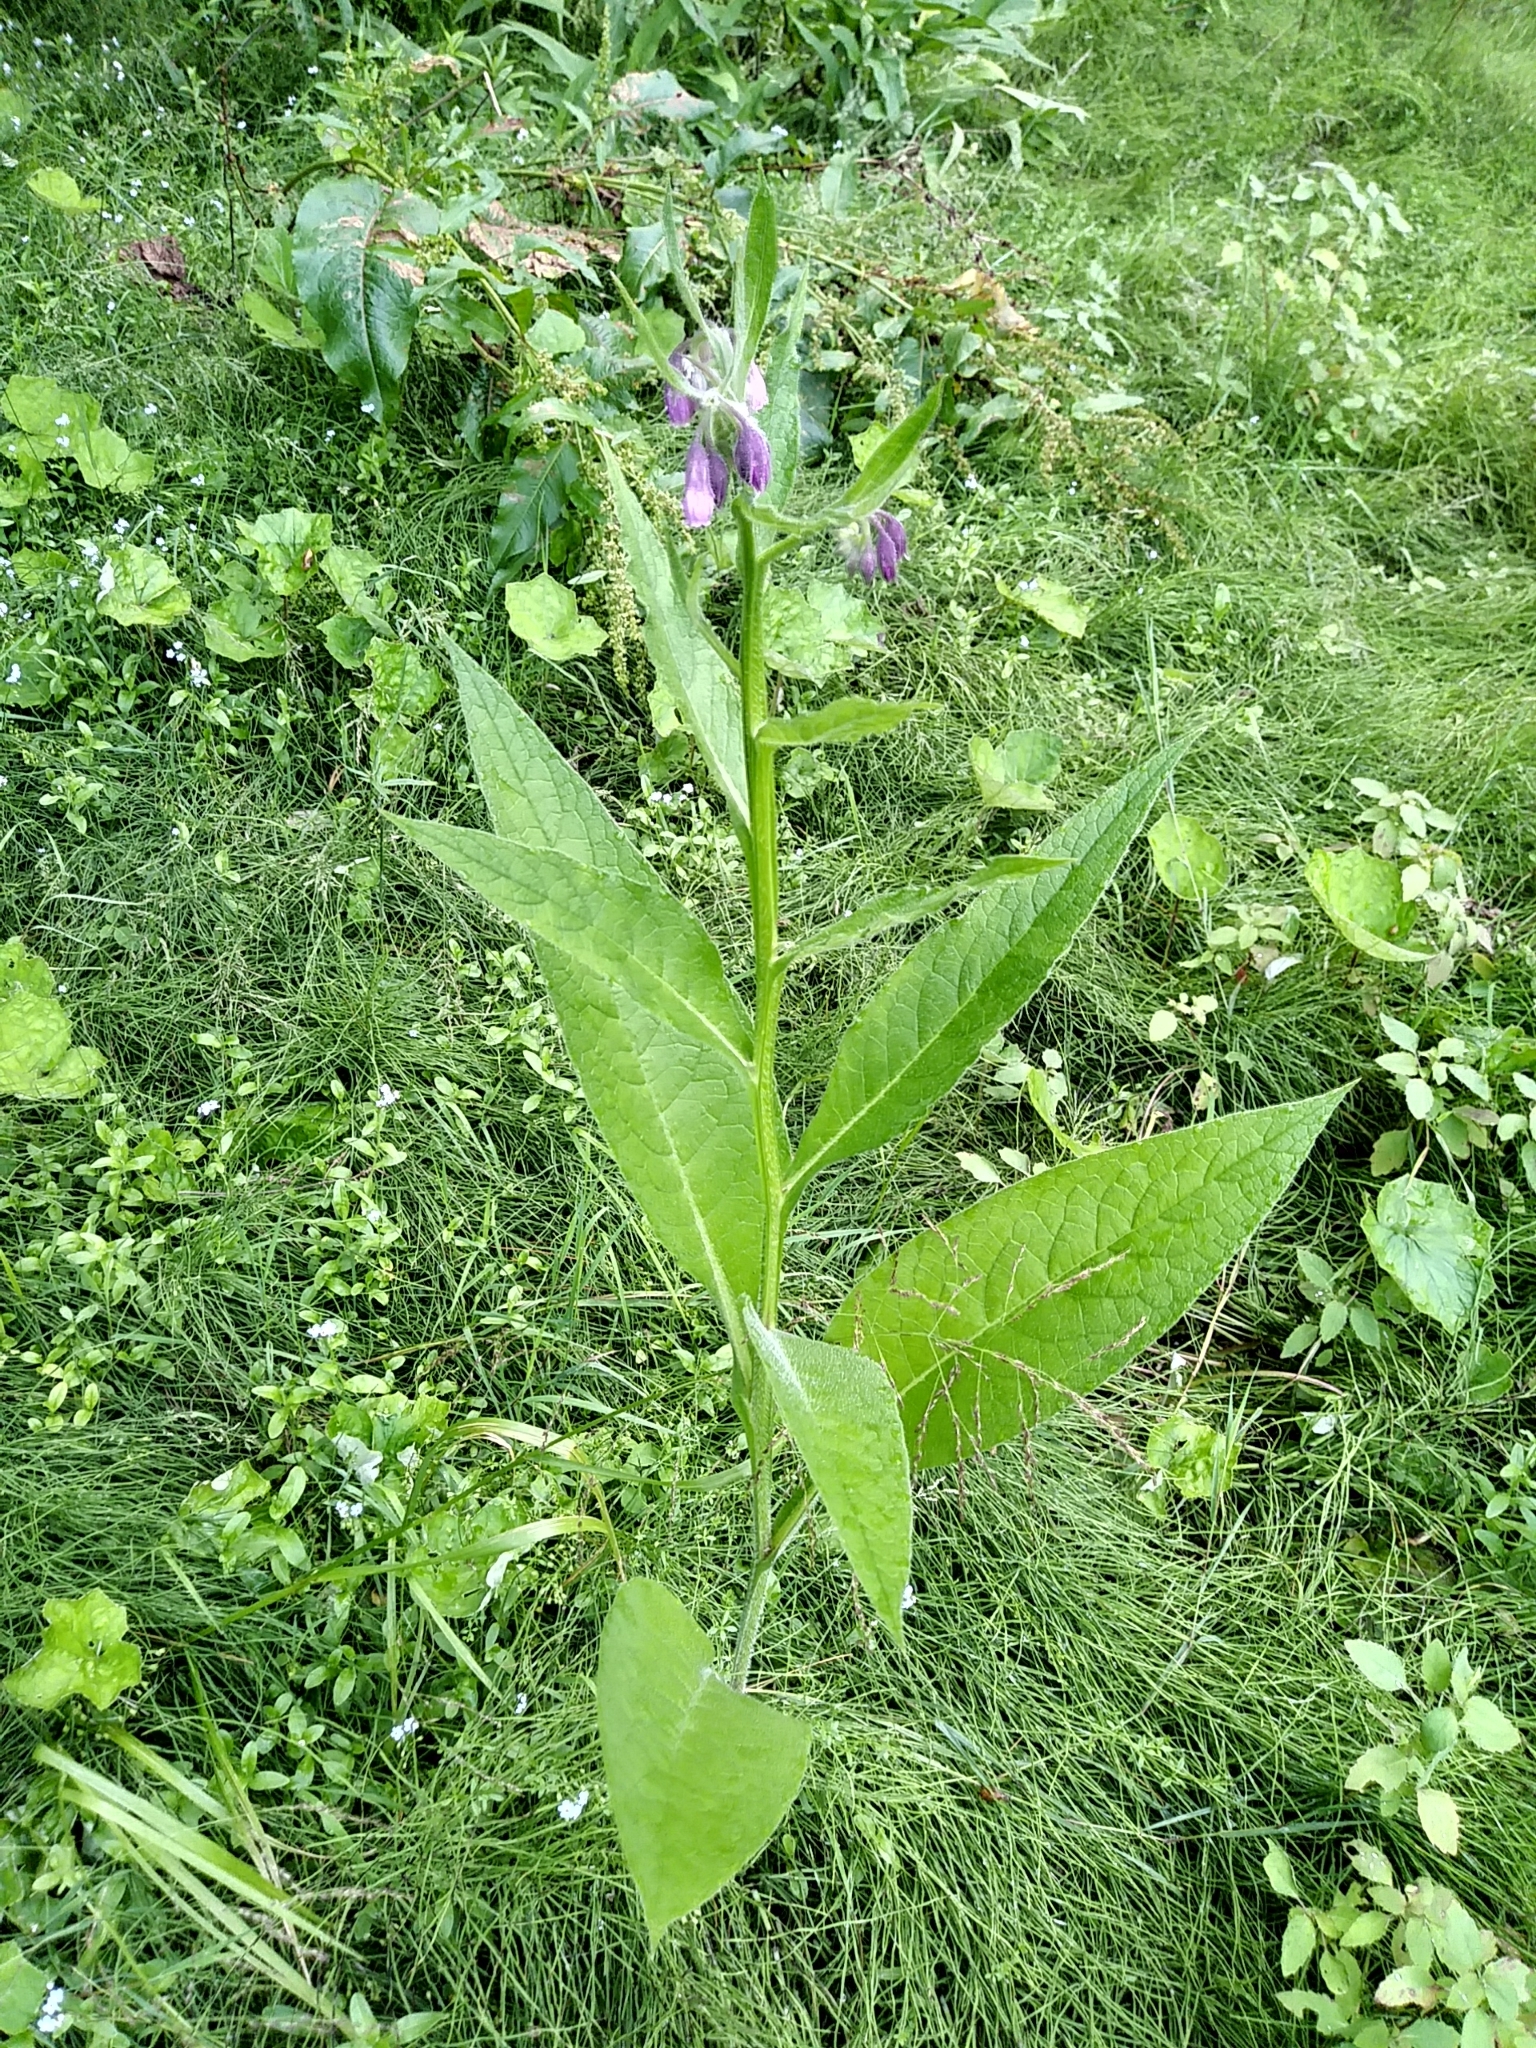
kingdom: Plantae
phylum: Tracheophyta
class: Magnoliopsida
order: Boraginales
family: Boraginaceae
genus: Symphytum
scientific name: Symphytum officinale
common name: Common comfrey
